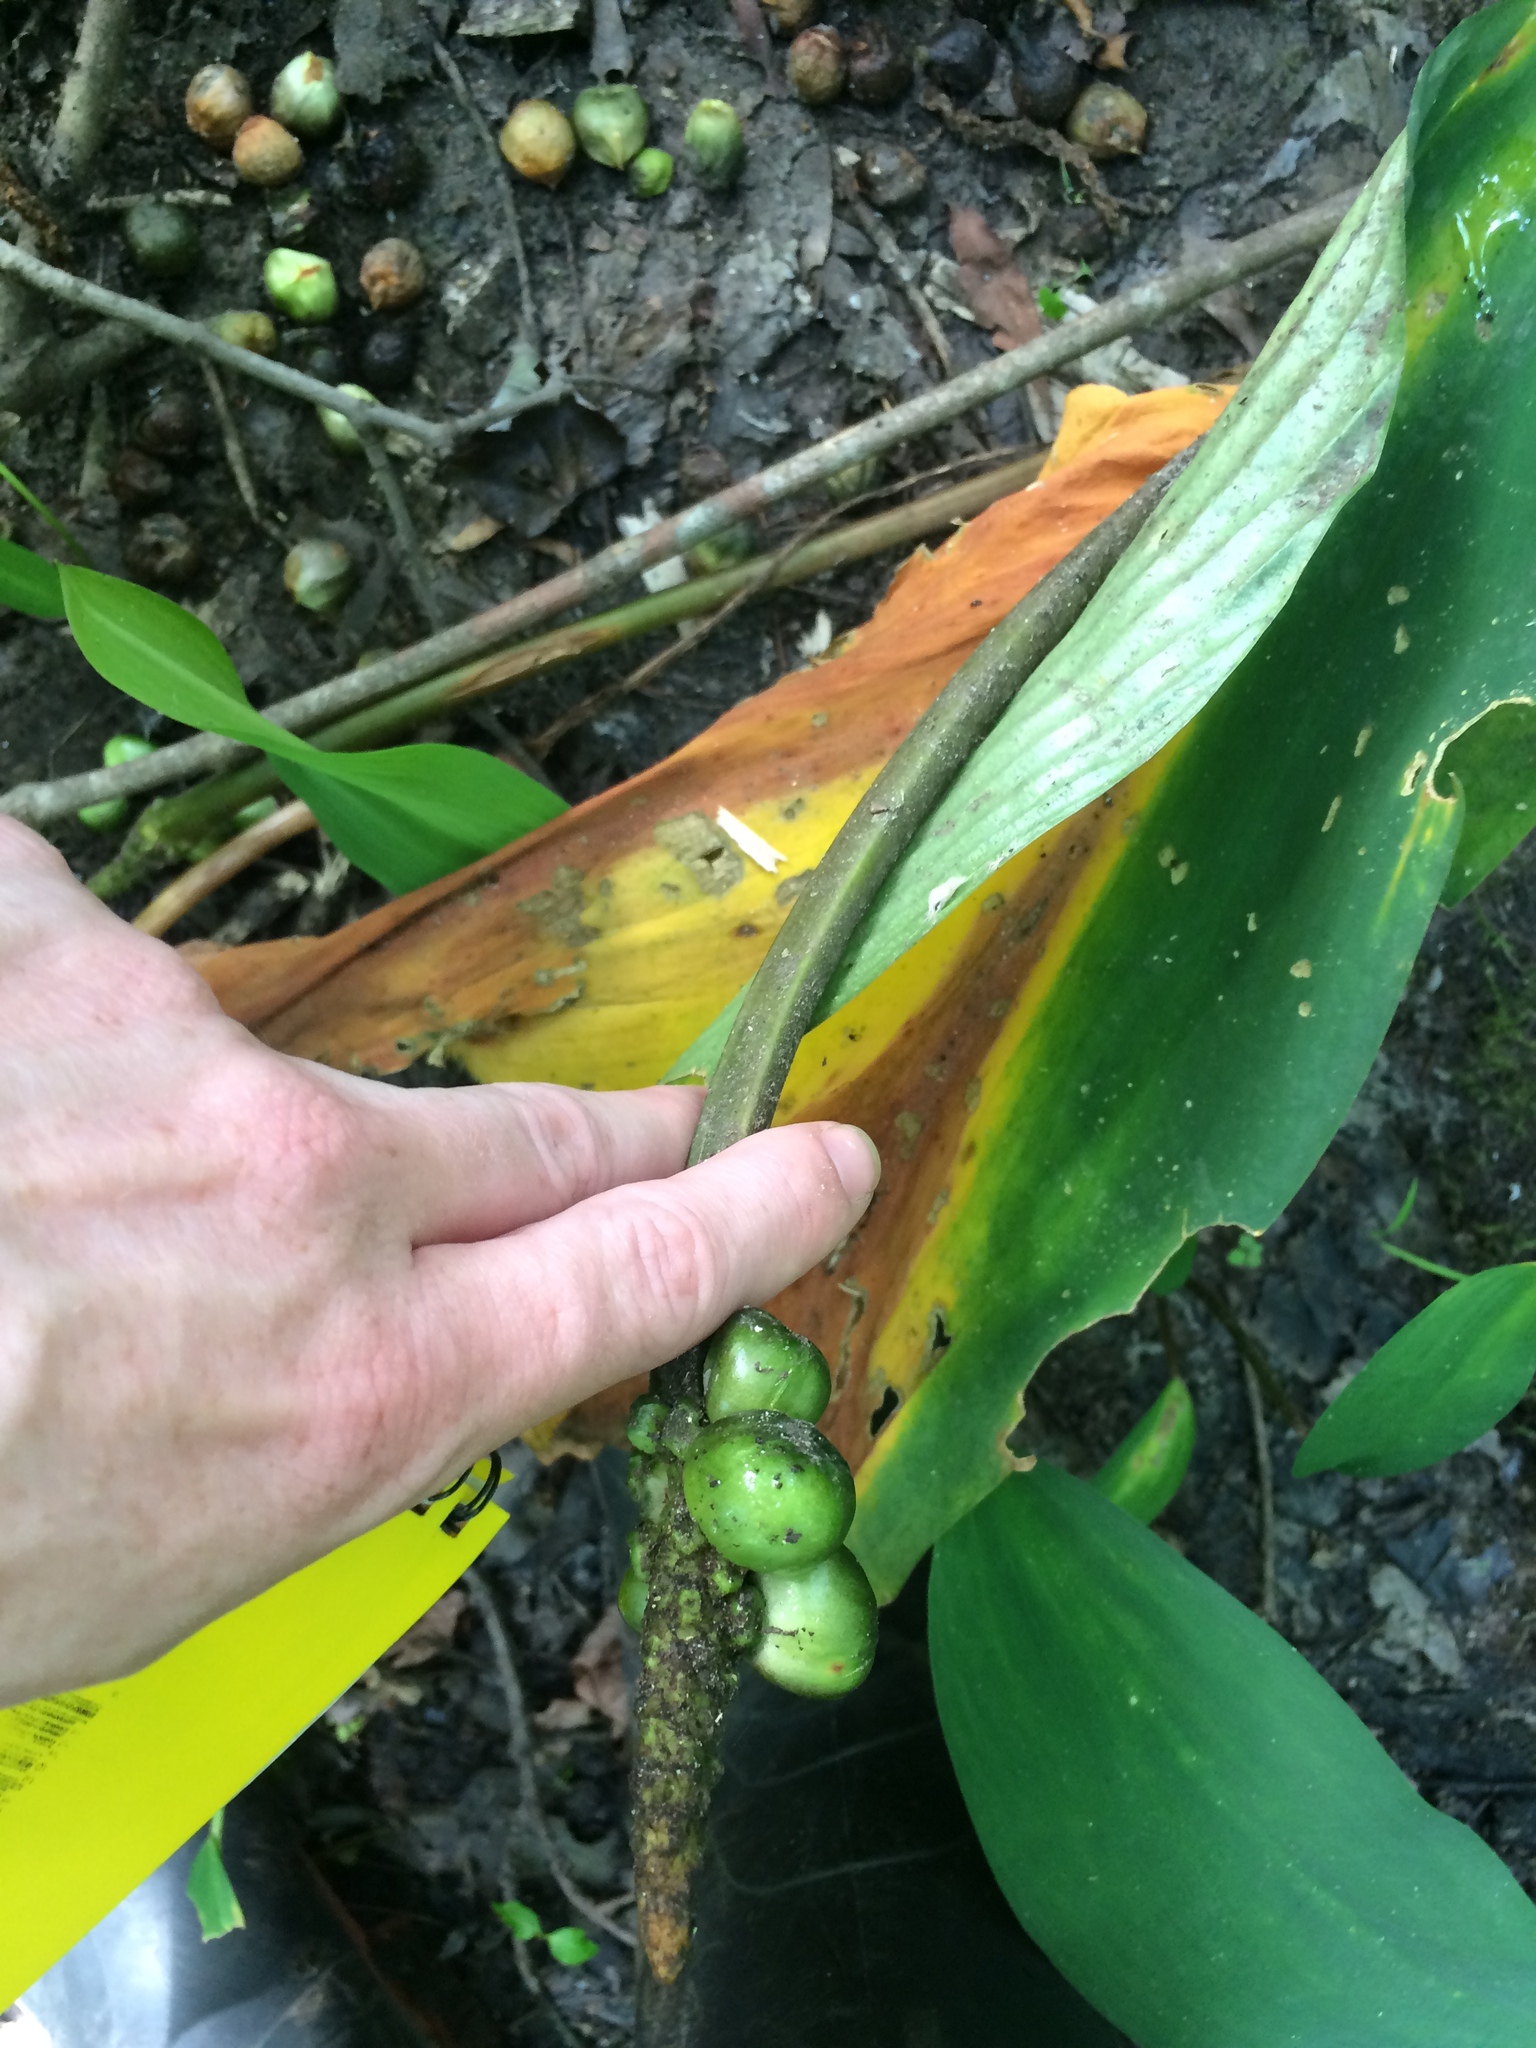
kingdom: Plantae
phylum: Tracheophyta
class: Liliopsida
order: Alismatales
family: Araceae
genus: Orontium
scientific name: Orontium aquaticum
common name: Golden-club
